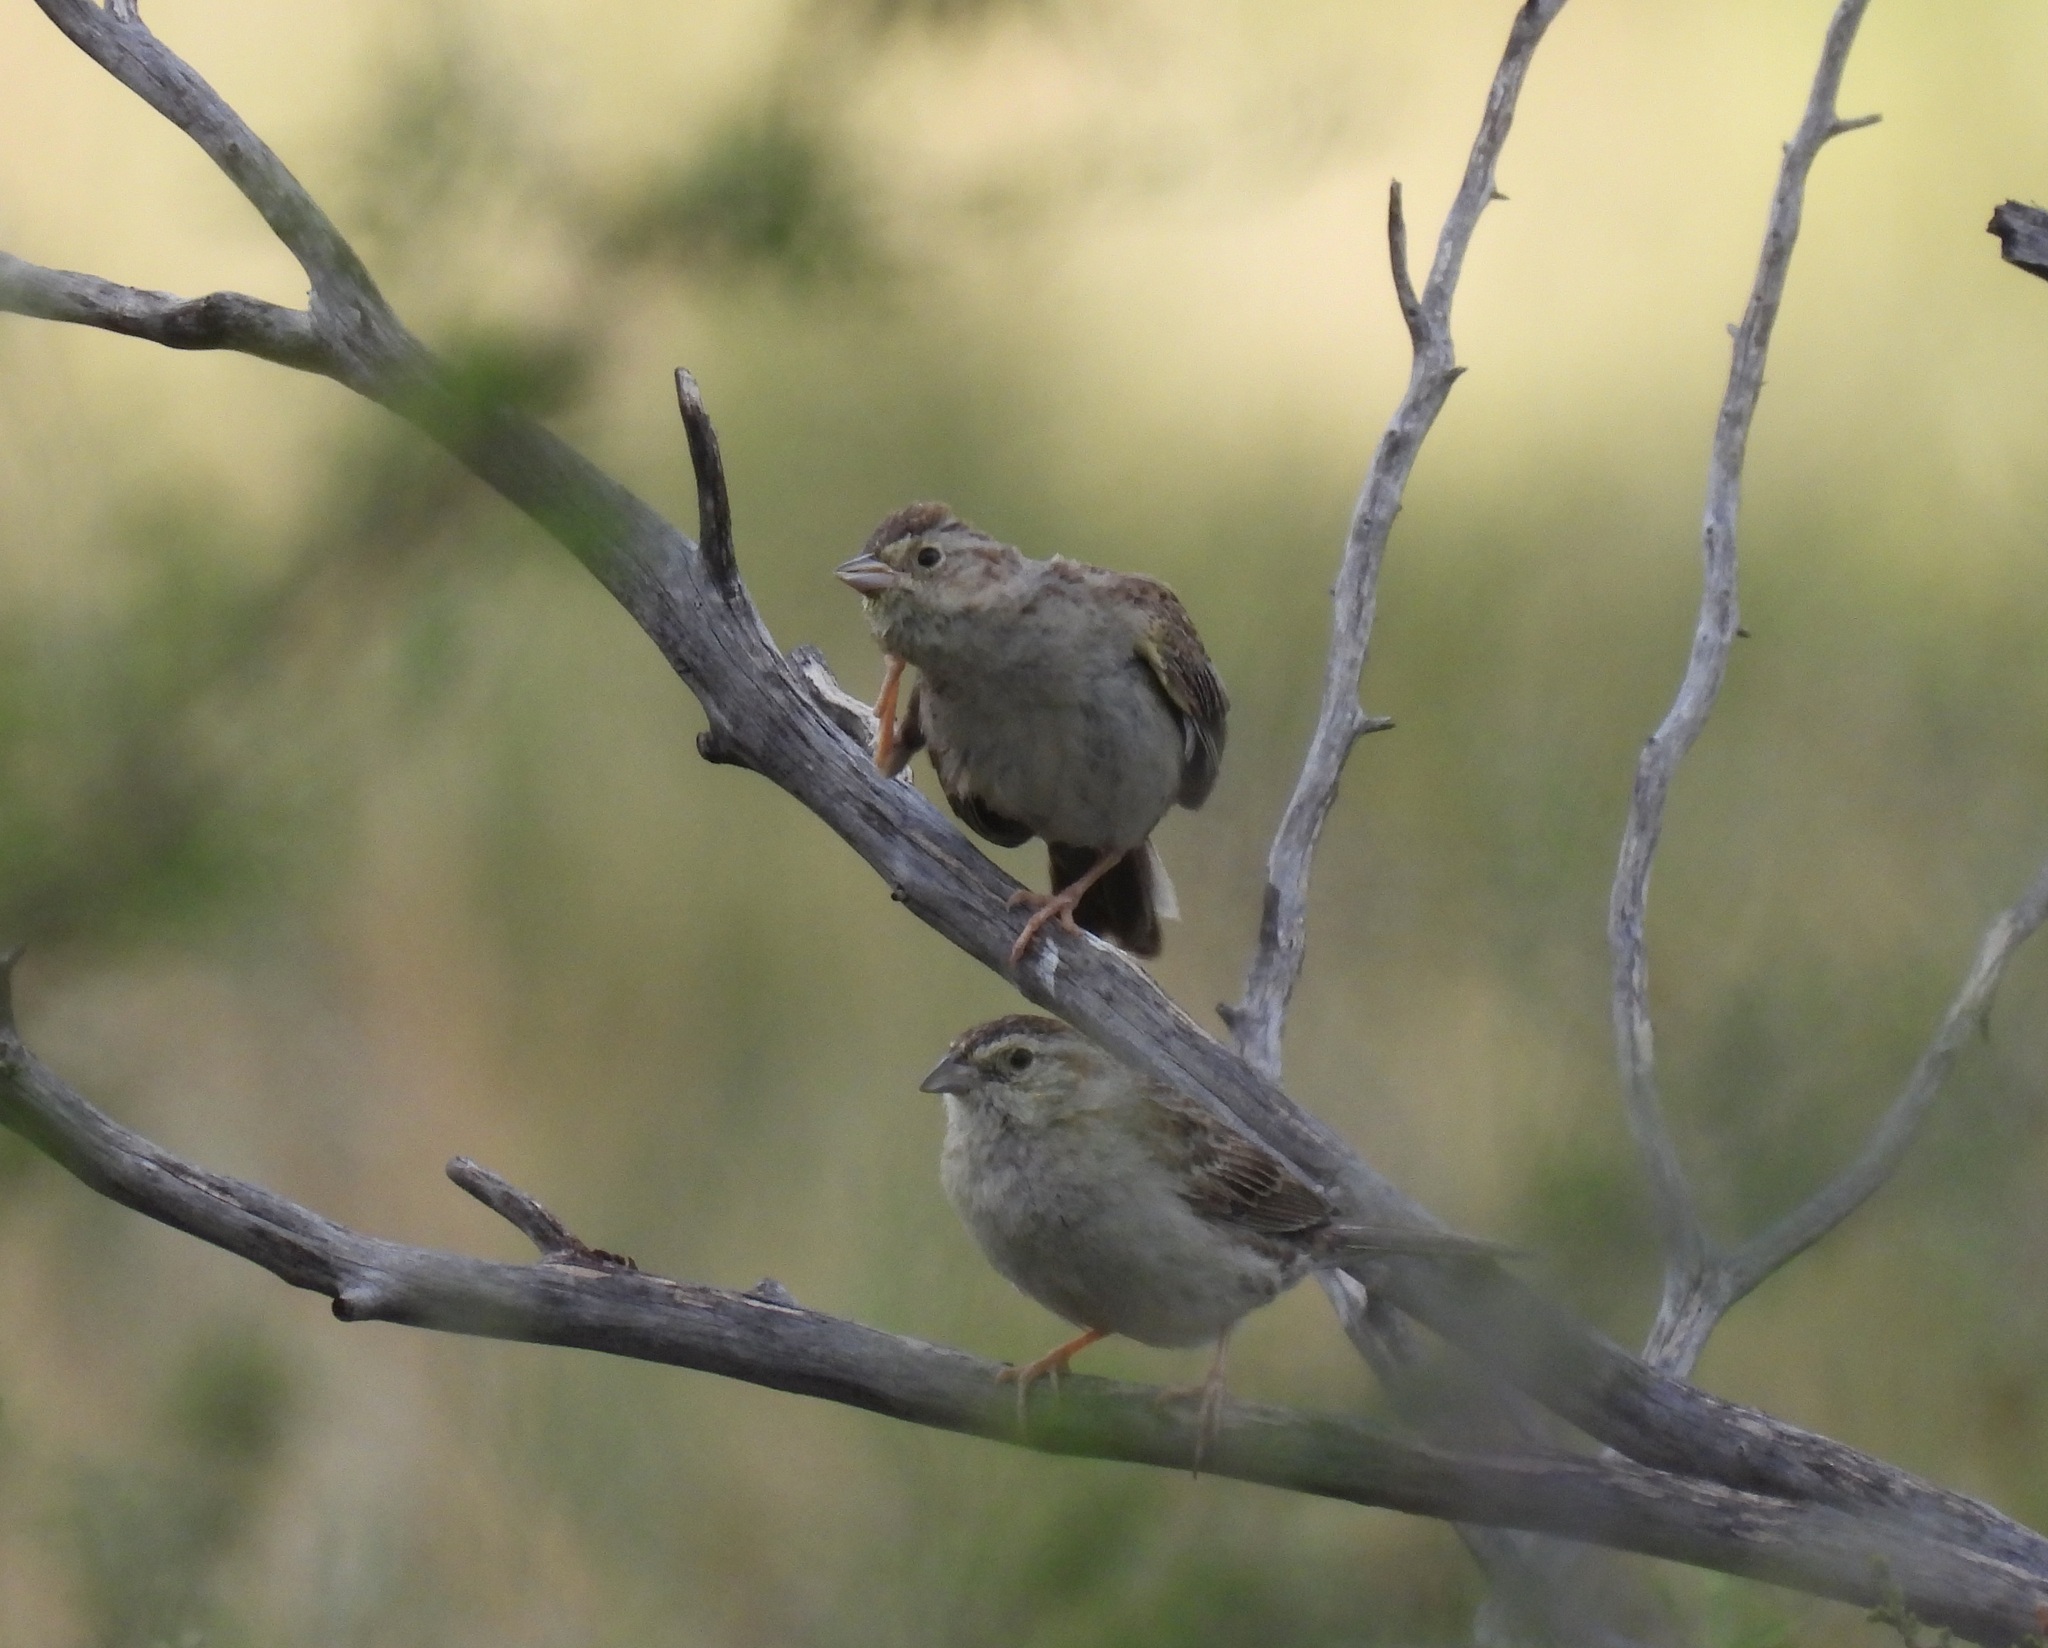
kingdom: Animalia
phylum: Chordata
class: Aves
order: Passeriformes
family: Passerellidae
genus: Peucaea
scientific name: Peucaea cassinii
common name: Cassin's sparrow
